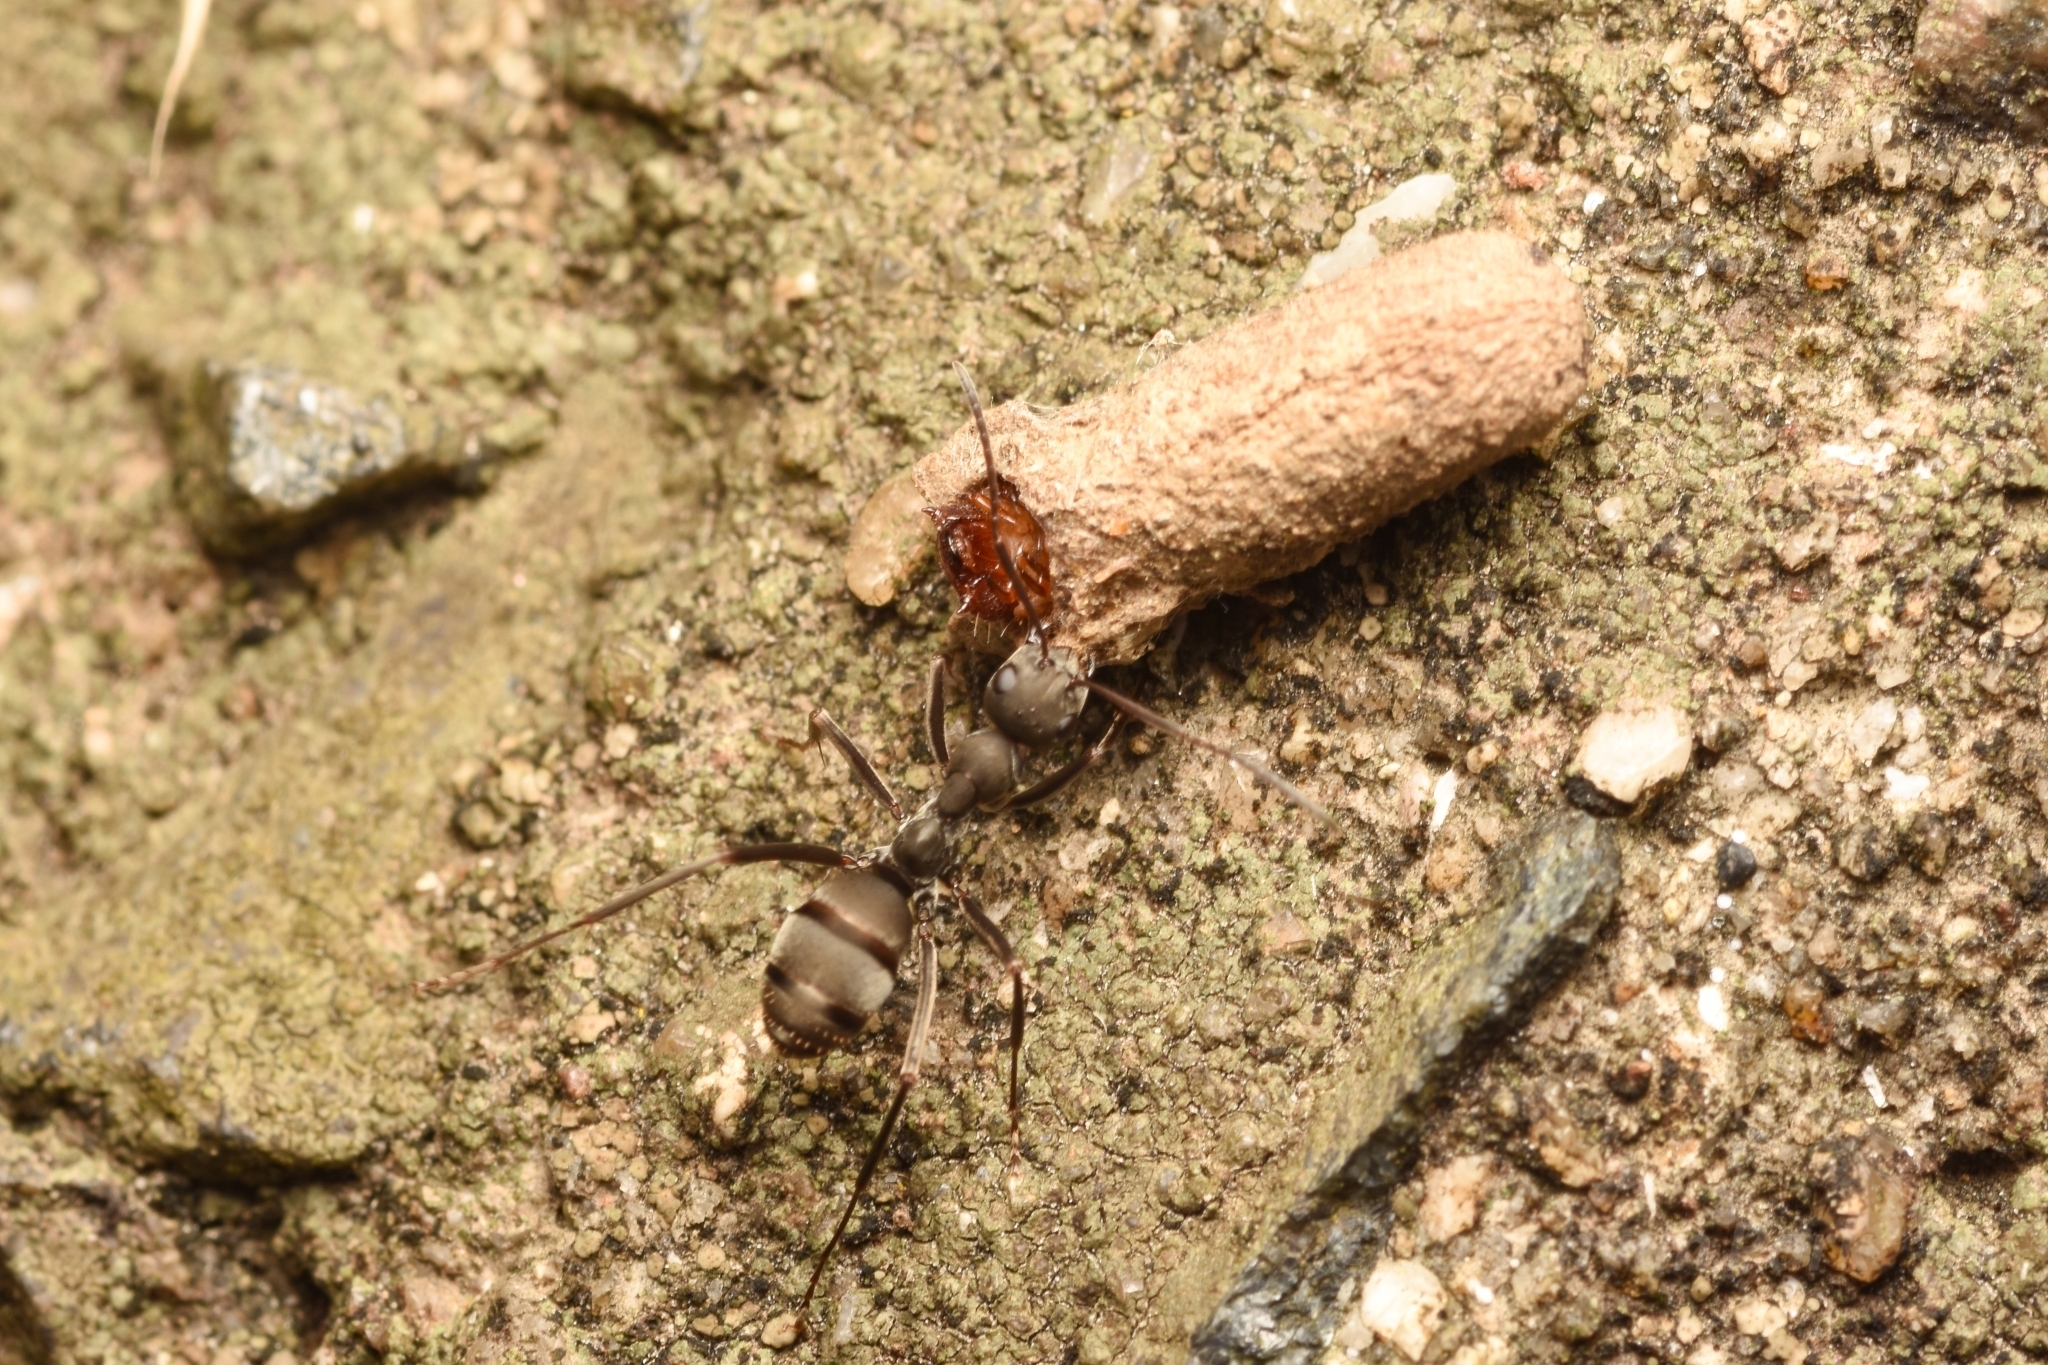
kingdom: Animalia
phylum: Arthropoda
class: Insecta
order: Hymenoptera
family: Formicidae
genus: Formica
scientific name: Formica japonica
